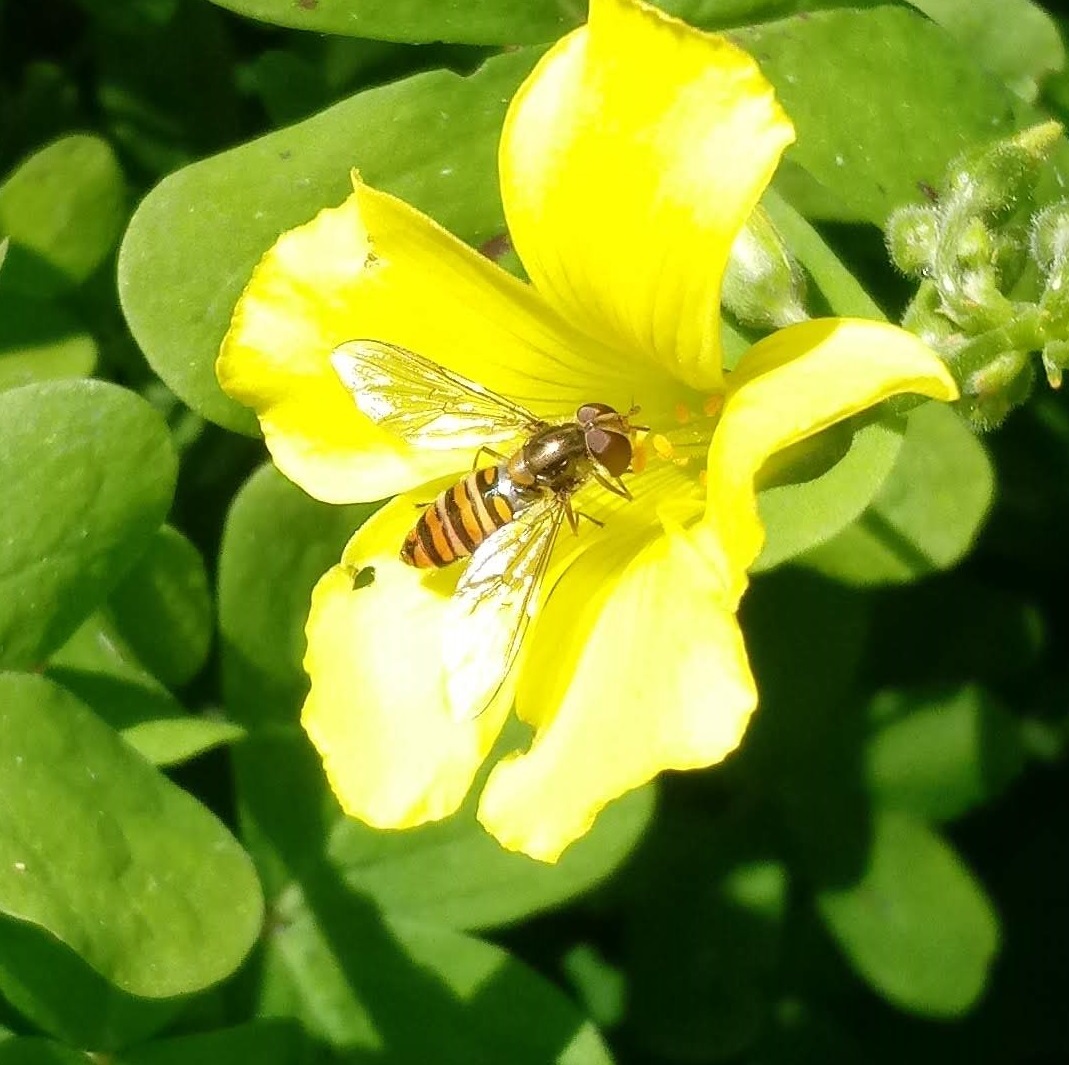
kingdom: Animalia
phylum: Arthropoda
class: Insecta
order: Diptera
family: Syrphidae
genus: Episyrphus
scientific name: Episyrphus balteatus
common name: Marmalade hoverfly
